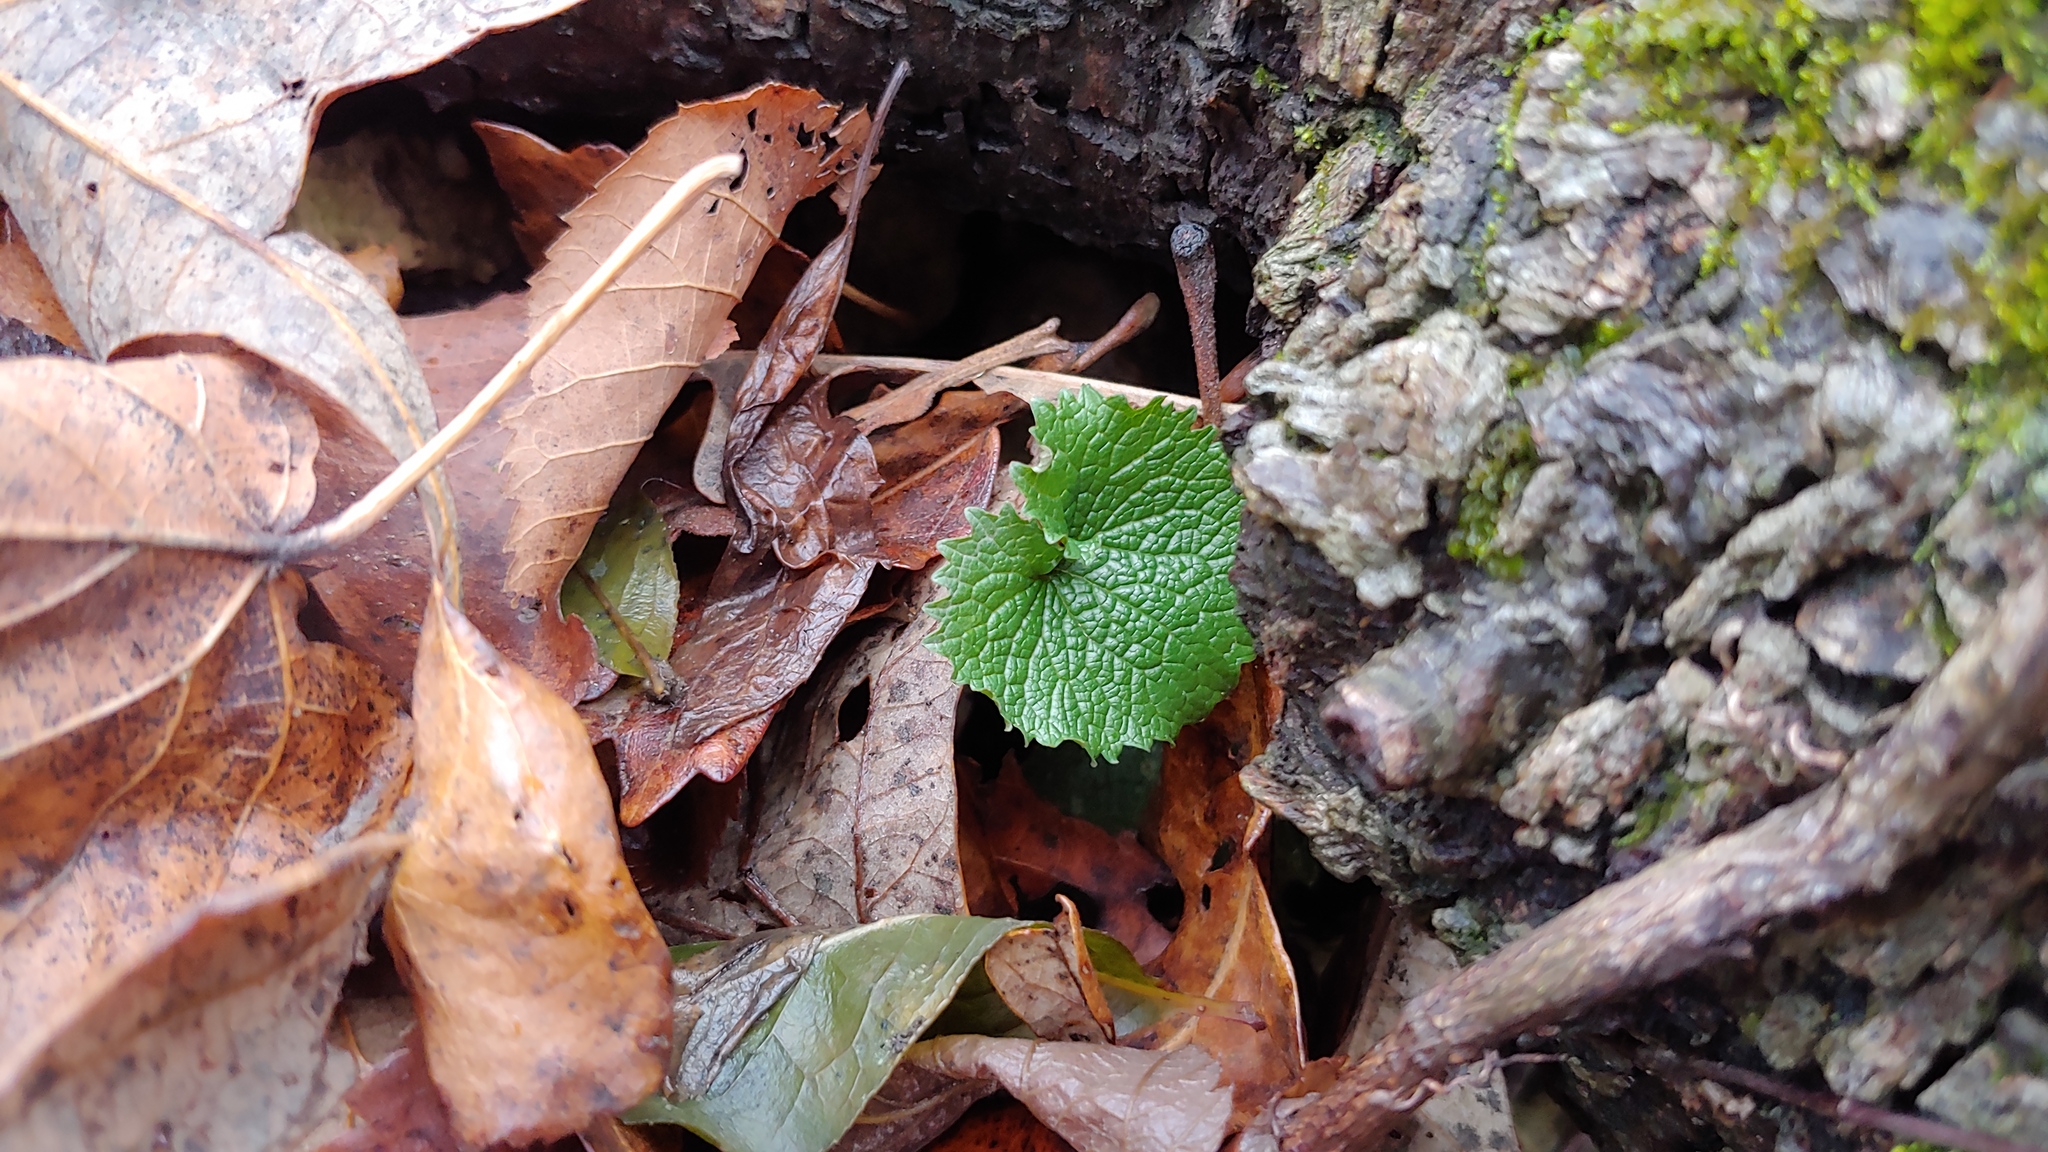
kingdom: Plantae
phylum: Tracheophyta
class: Magnoliopsida
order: Brassicales
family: Brassicaceae
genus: Alliaria
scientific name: Alliaria petiolata
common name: Garlic mustard
